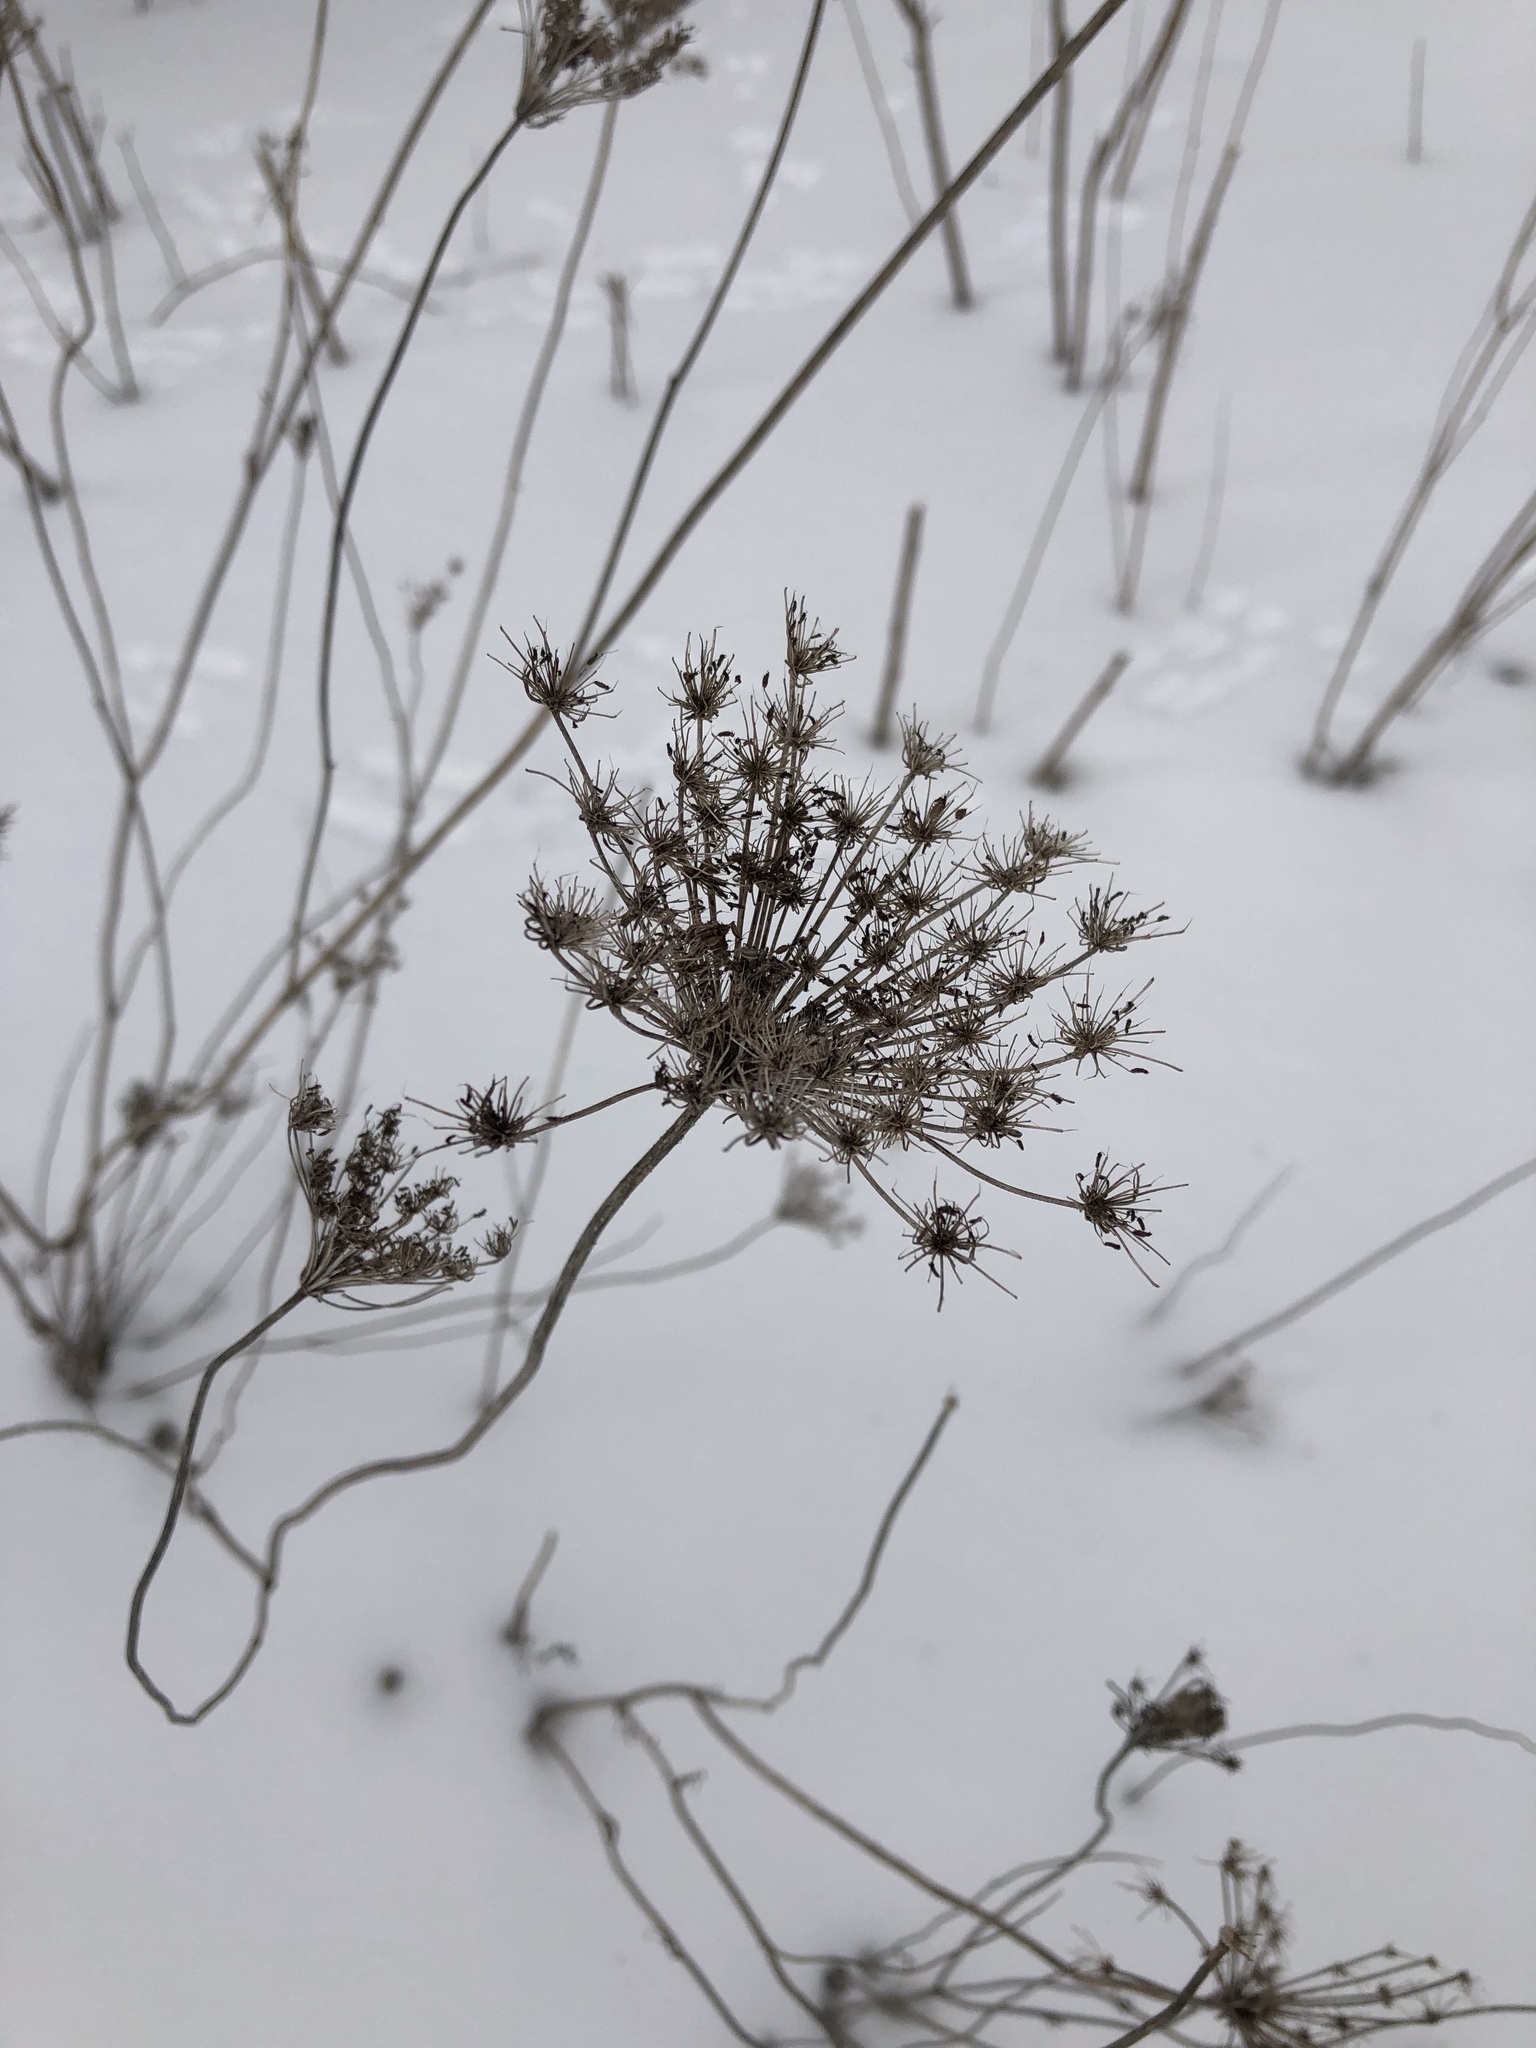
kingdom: Plantae
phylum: Tracheophyta
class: Magnoliopsida
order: Apiales
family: Apiaceae
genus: Daucus
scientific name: Daucus carota
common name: Wild carrot
